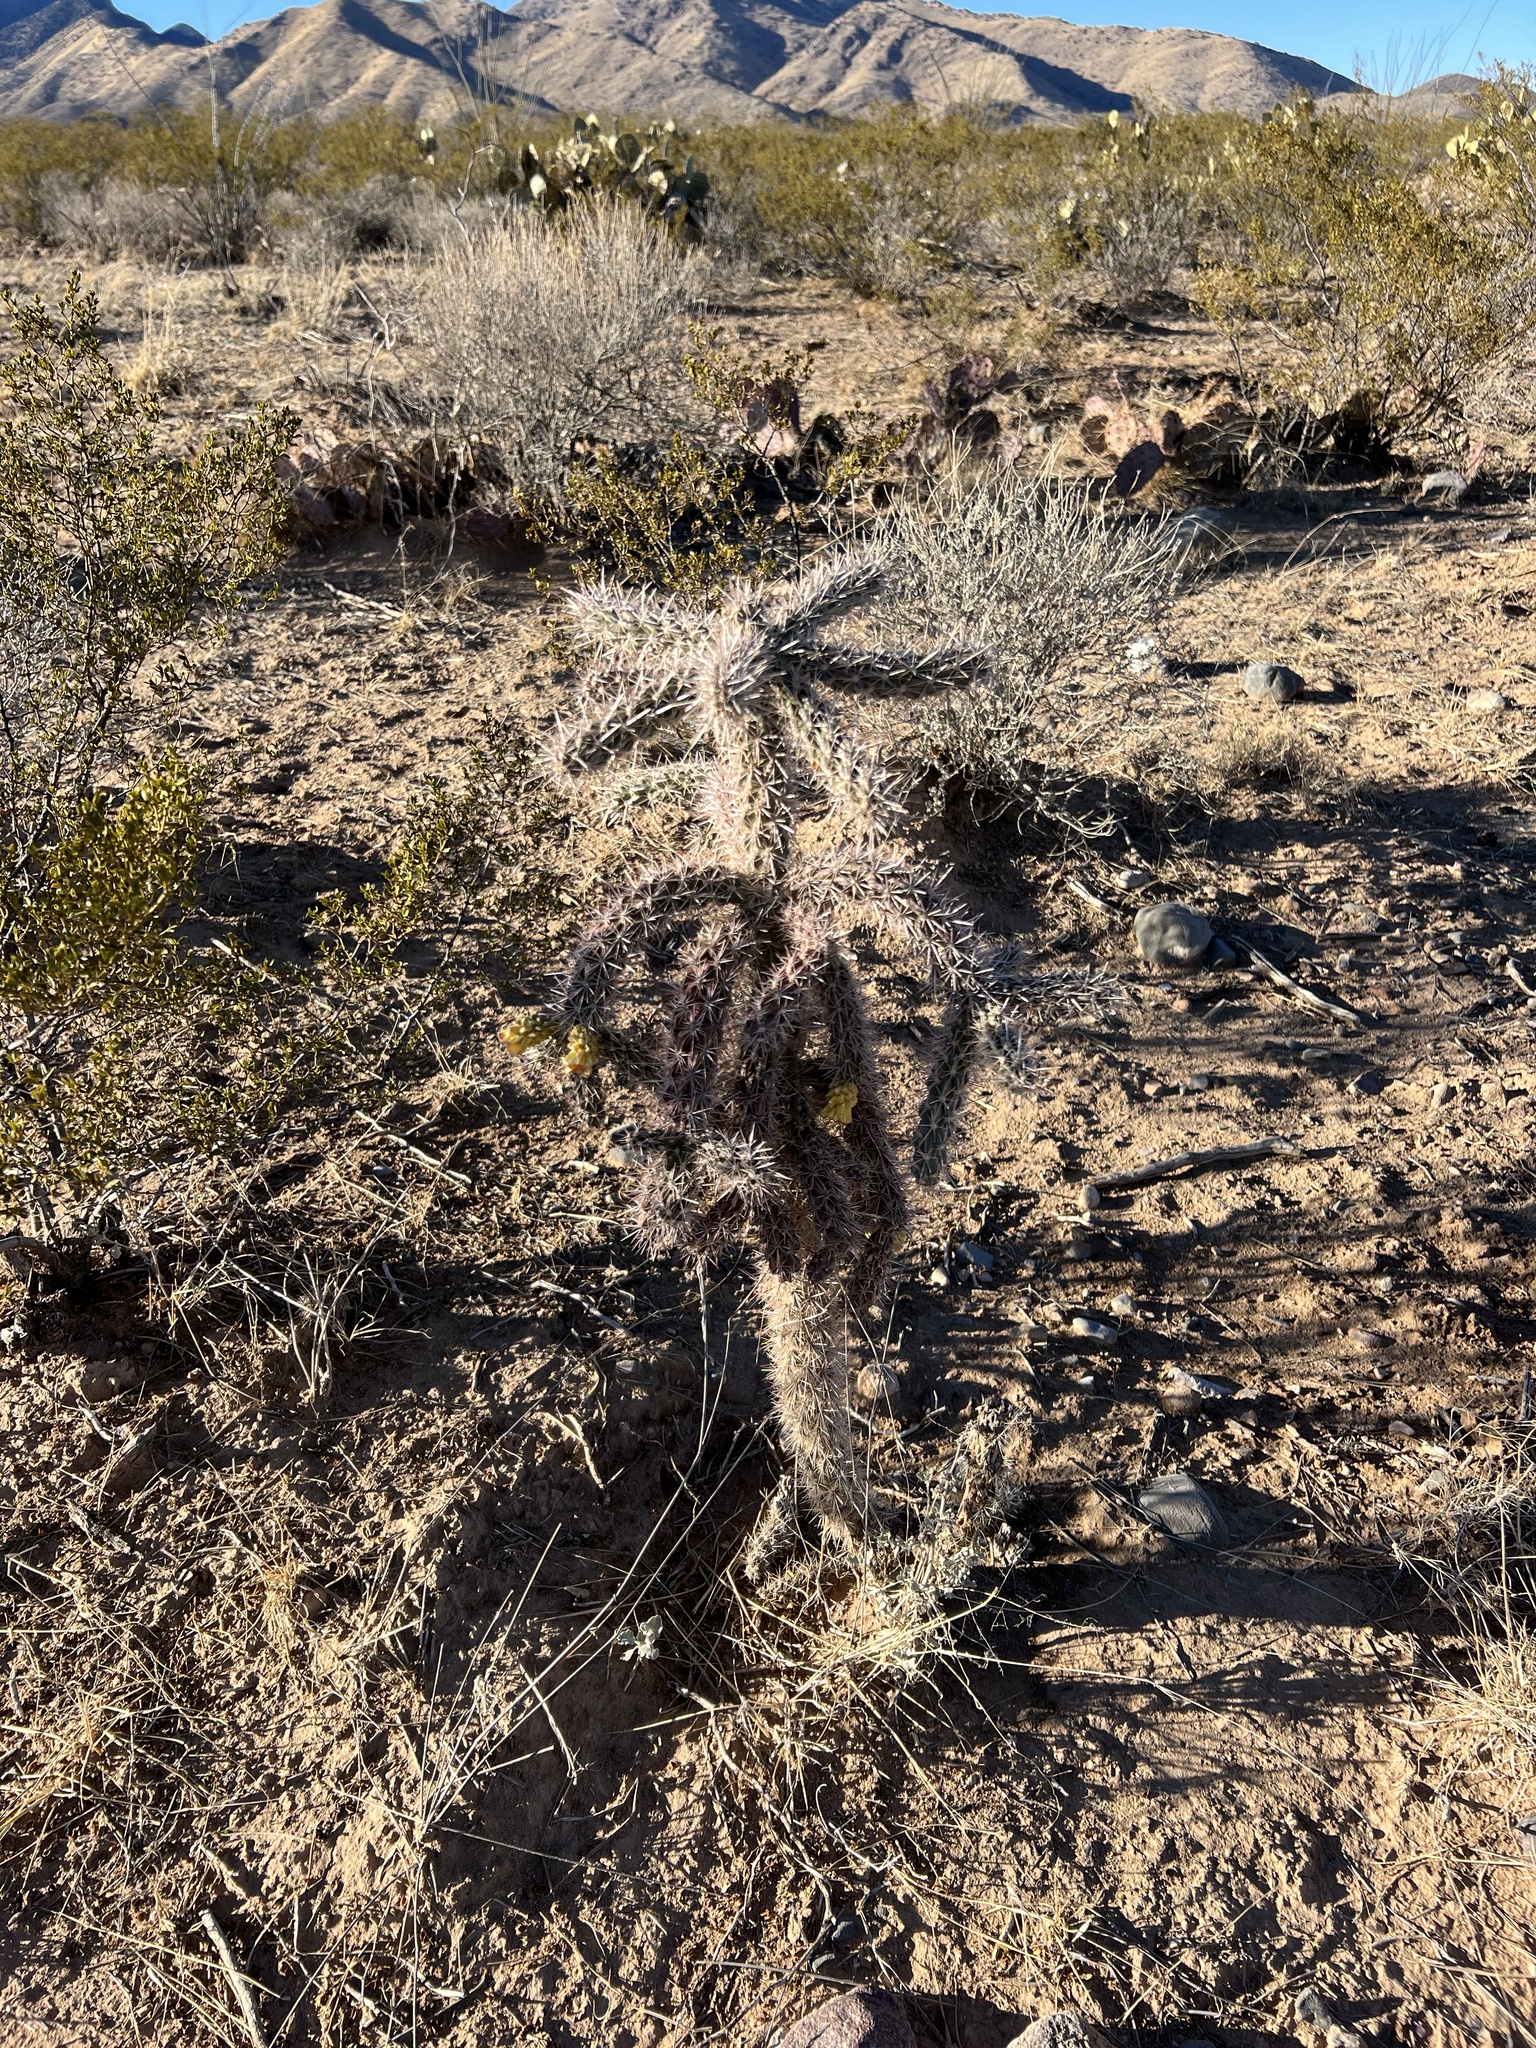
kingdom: Plantae
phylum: Tracheophyta
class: Magnoliopsida
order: Caryophyllales
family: Cactaceae
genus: Cylindropuntia
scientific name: Cylindropuntia imbricata
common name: Candelabrum cactus
